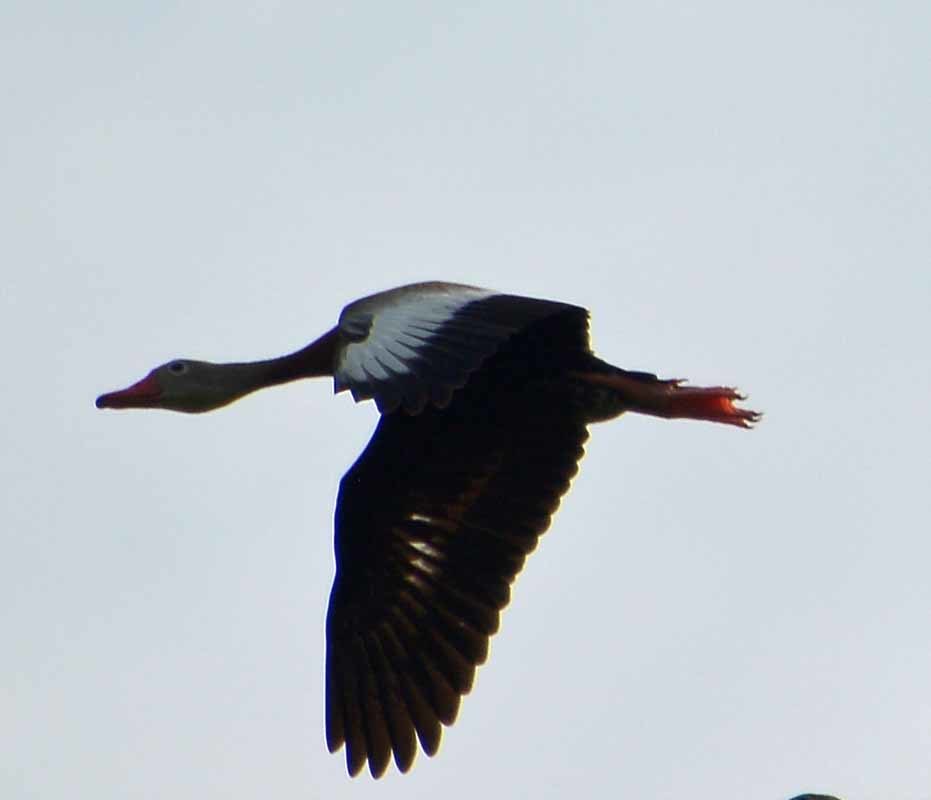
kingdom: Animalia
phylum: Chordata
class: Aves
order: Anseriformes
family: Anatidae
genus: Dendrocygna
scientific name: Dendrocygna autumnalis
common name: Black-bellied whistling duck
